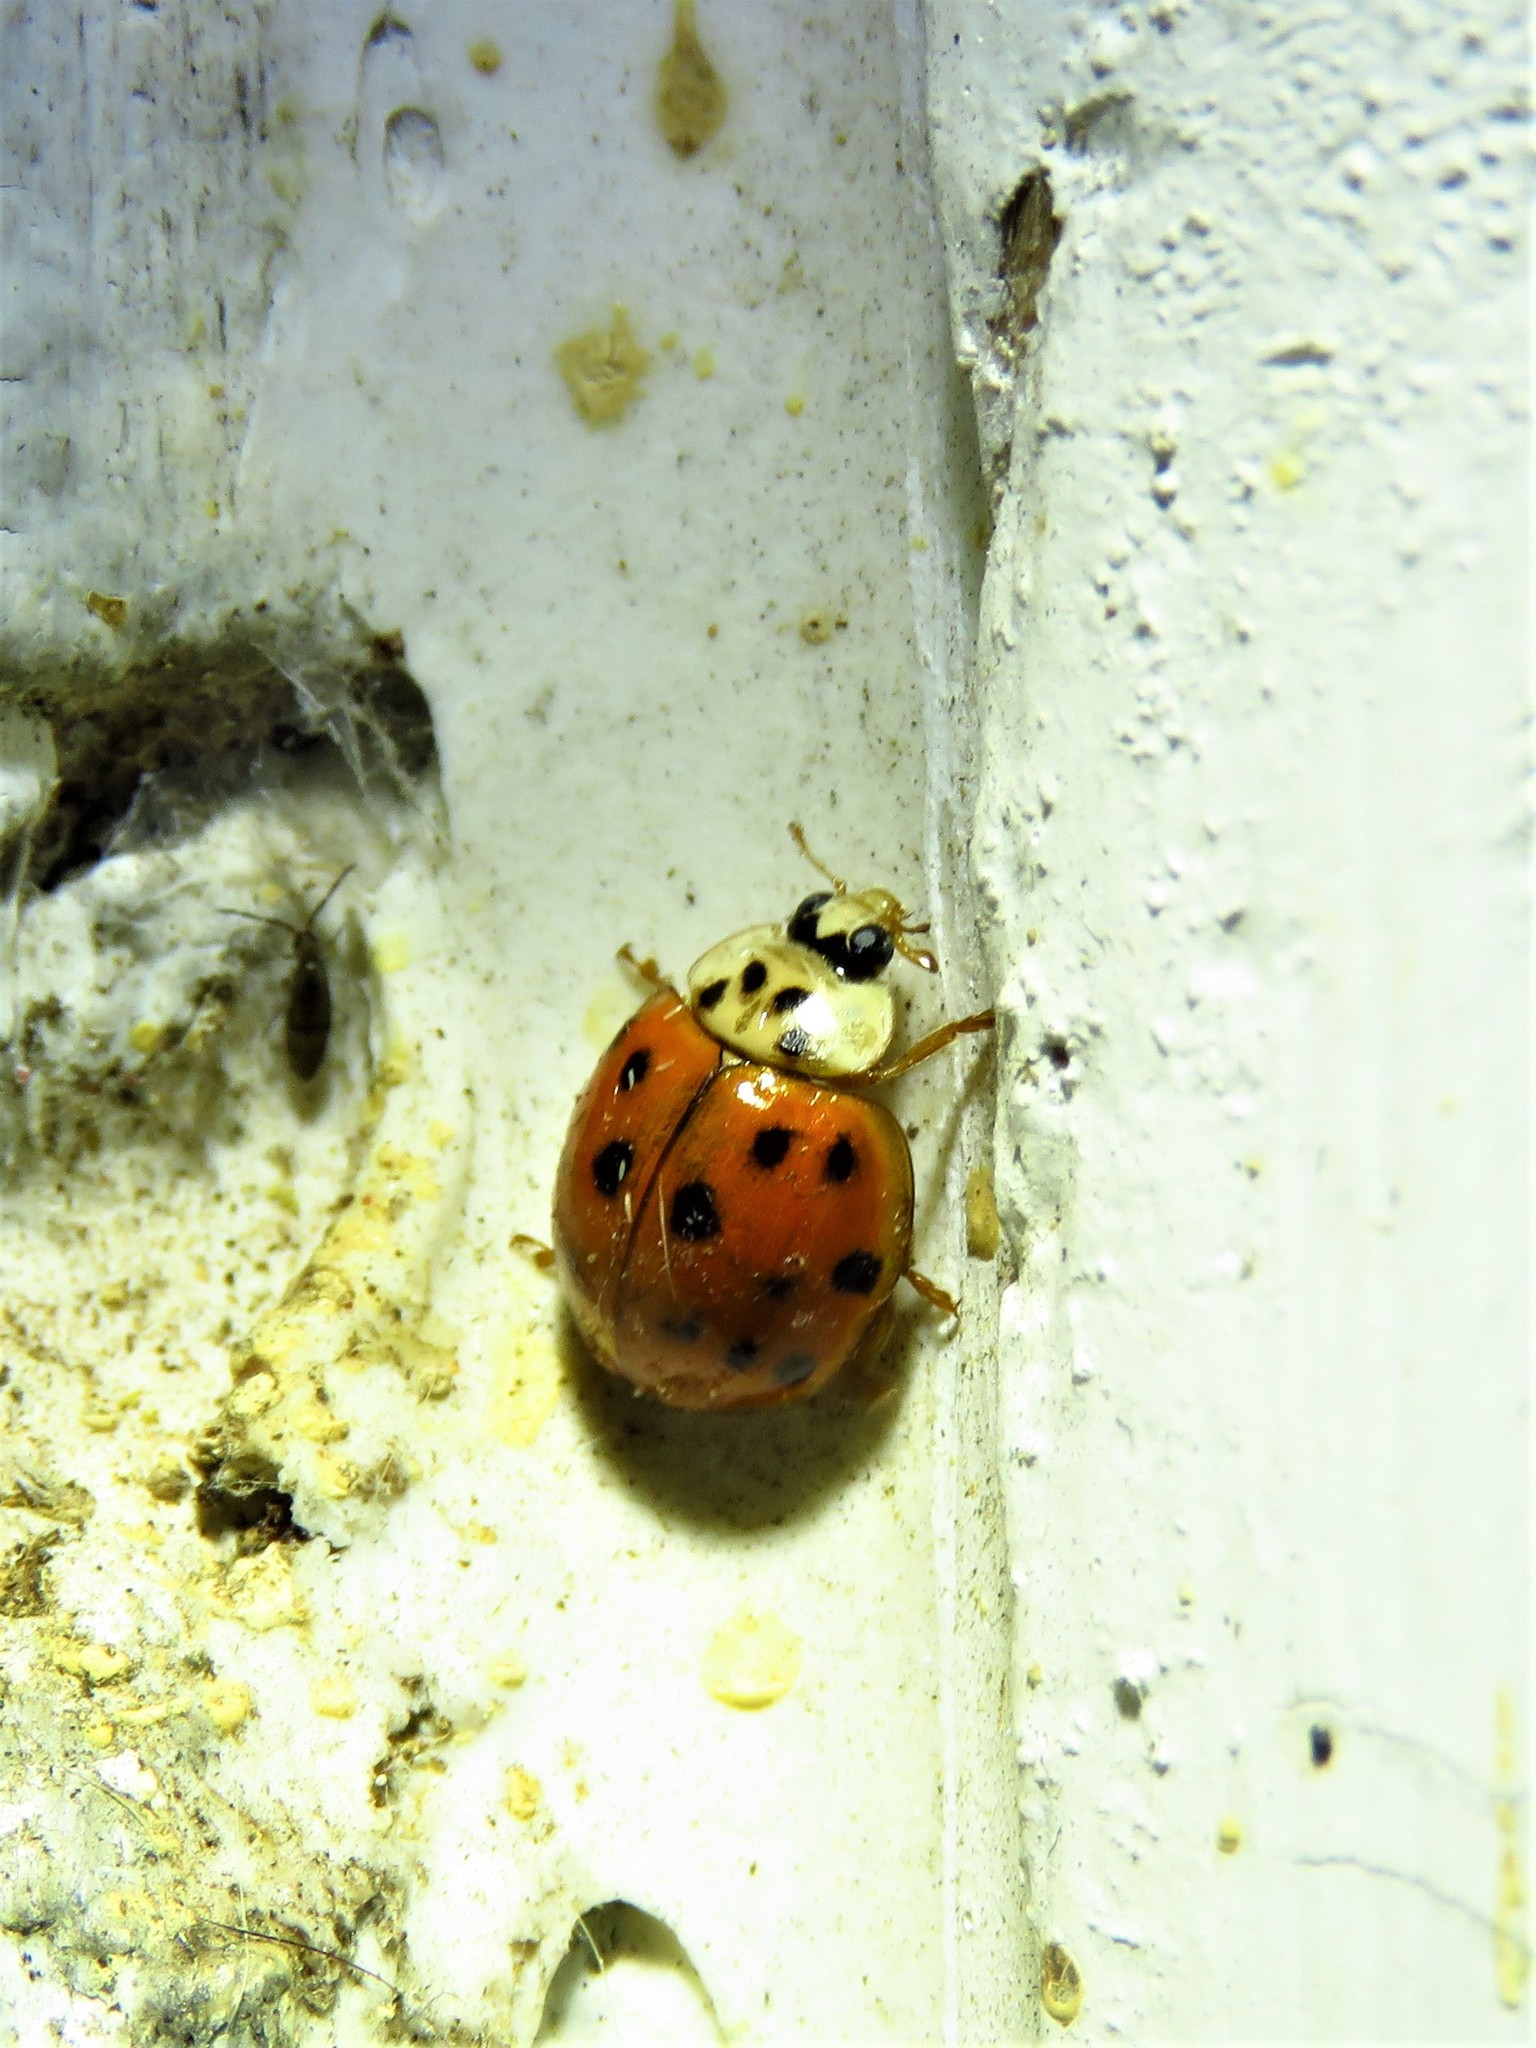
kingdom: Animalia
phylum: Arthropoda
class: Insecta
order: Coleoptera
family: Coccinellidae
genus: Harmonia
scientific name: Harmonia axyridis
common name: Harlequin ladybird
